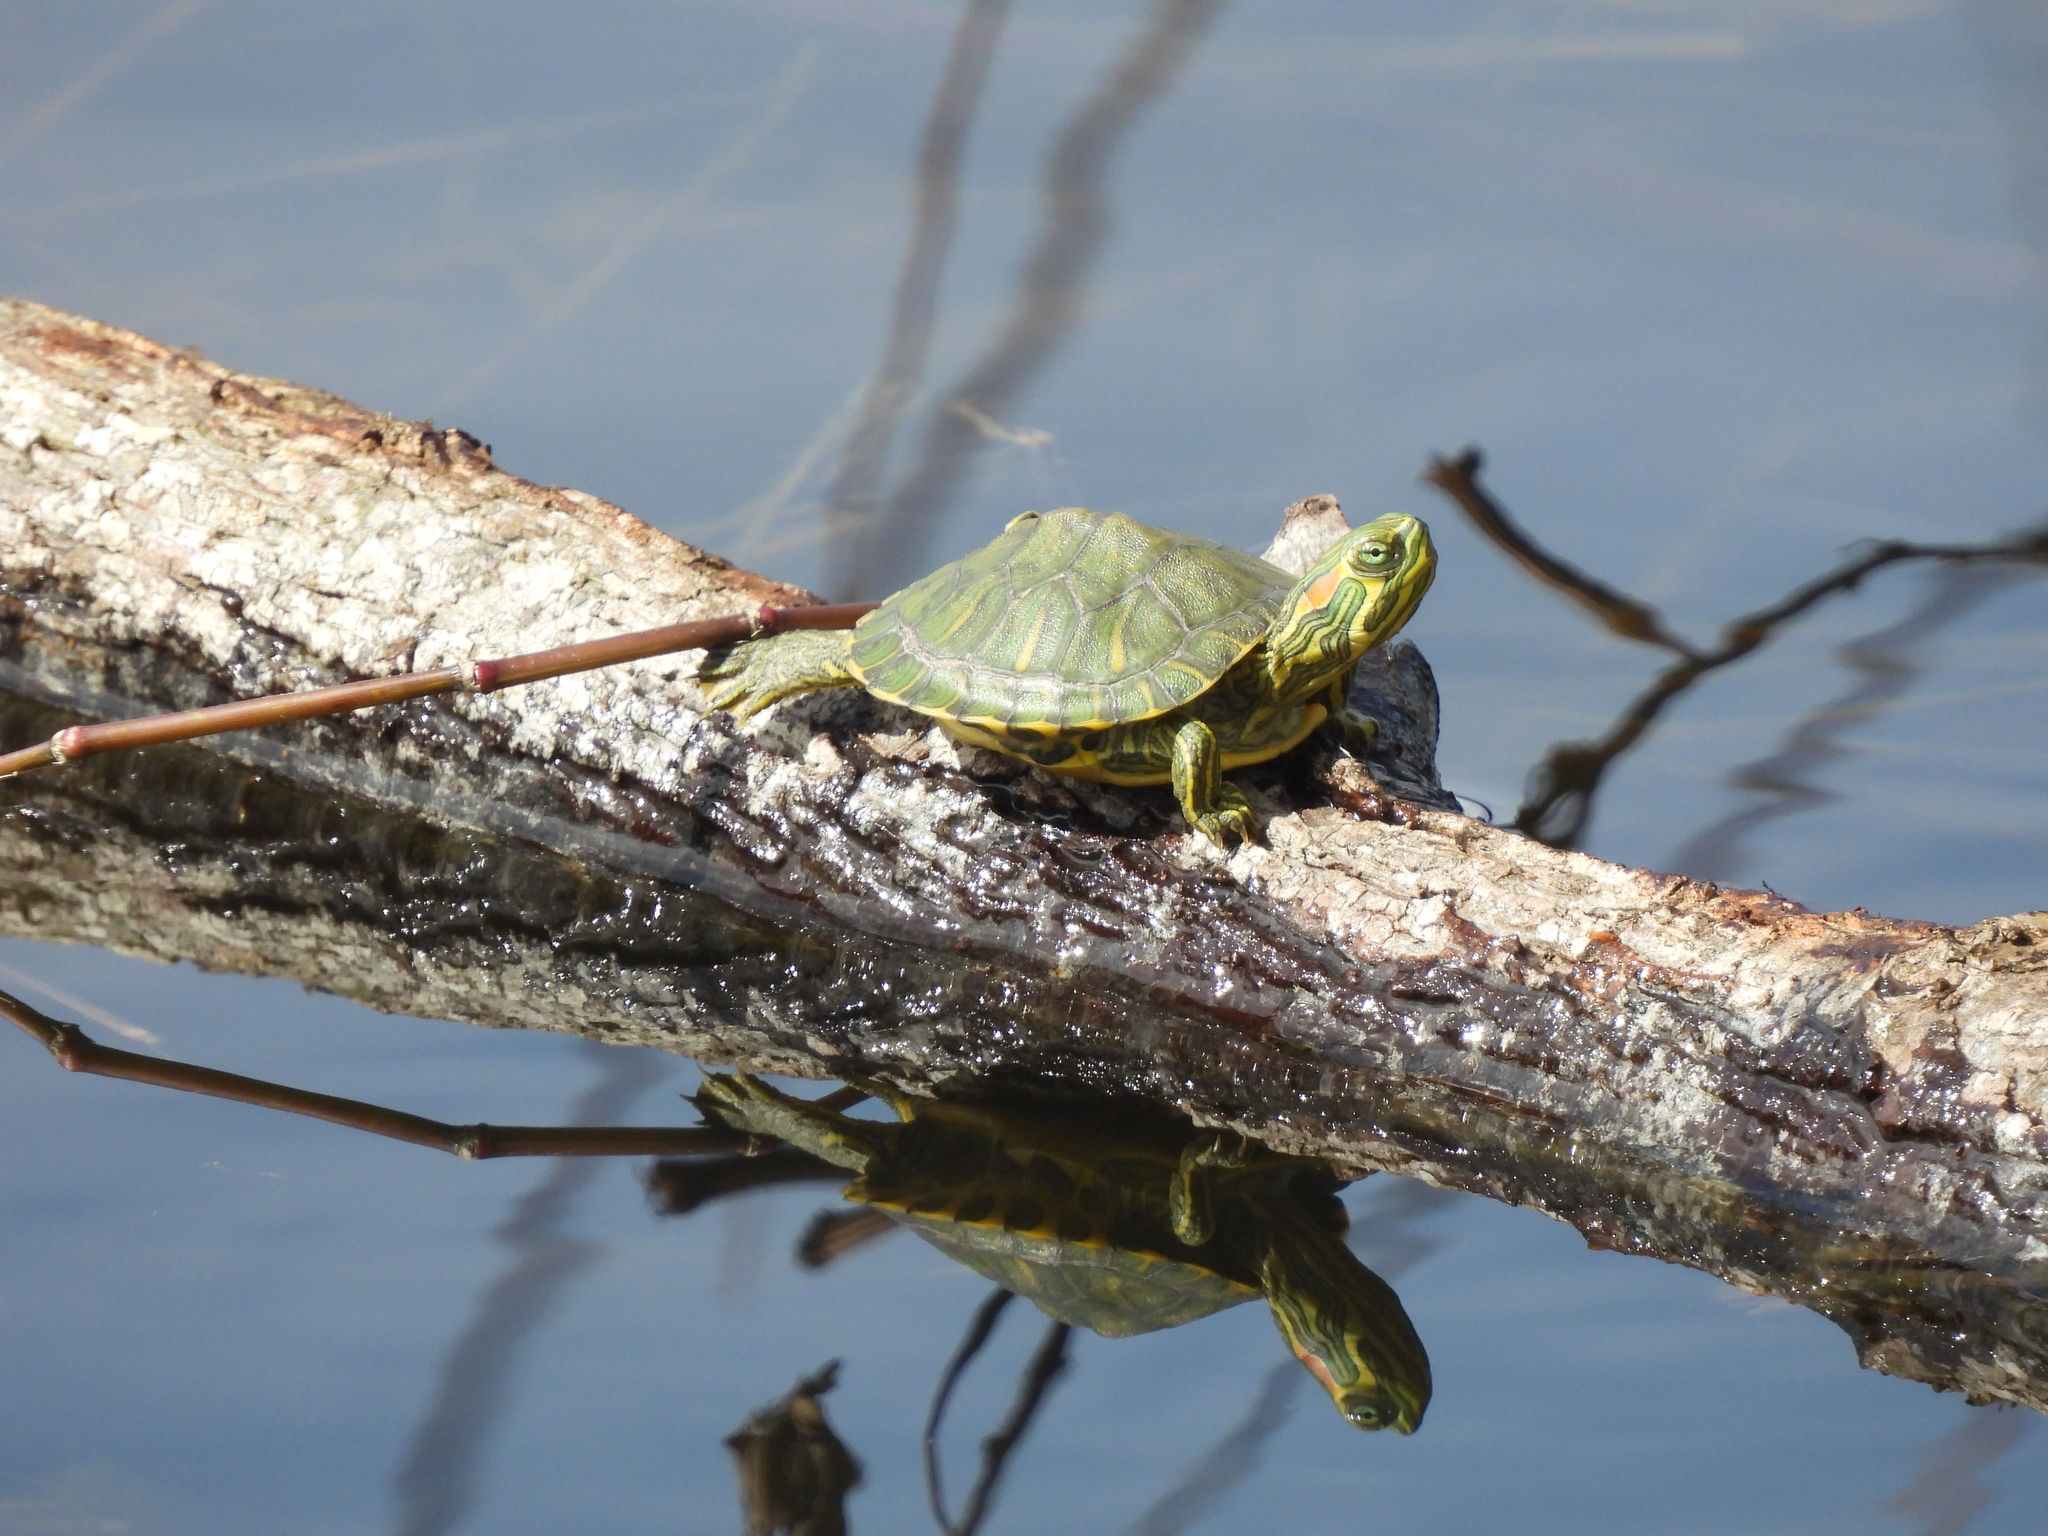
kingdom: Animalia
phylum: Chordata
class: Testudines
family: Emydidae
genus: Trachemys
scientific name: Trachemys scripta
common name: Slider
